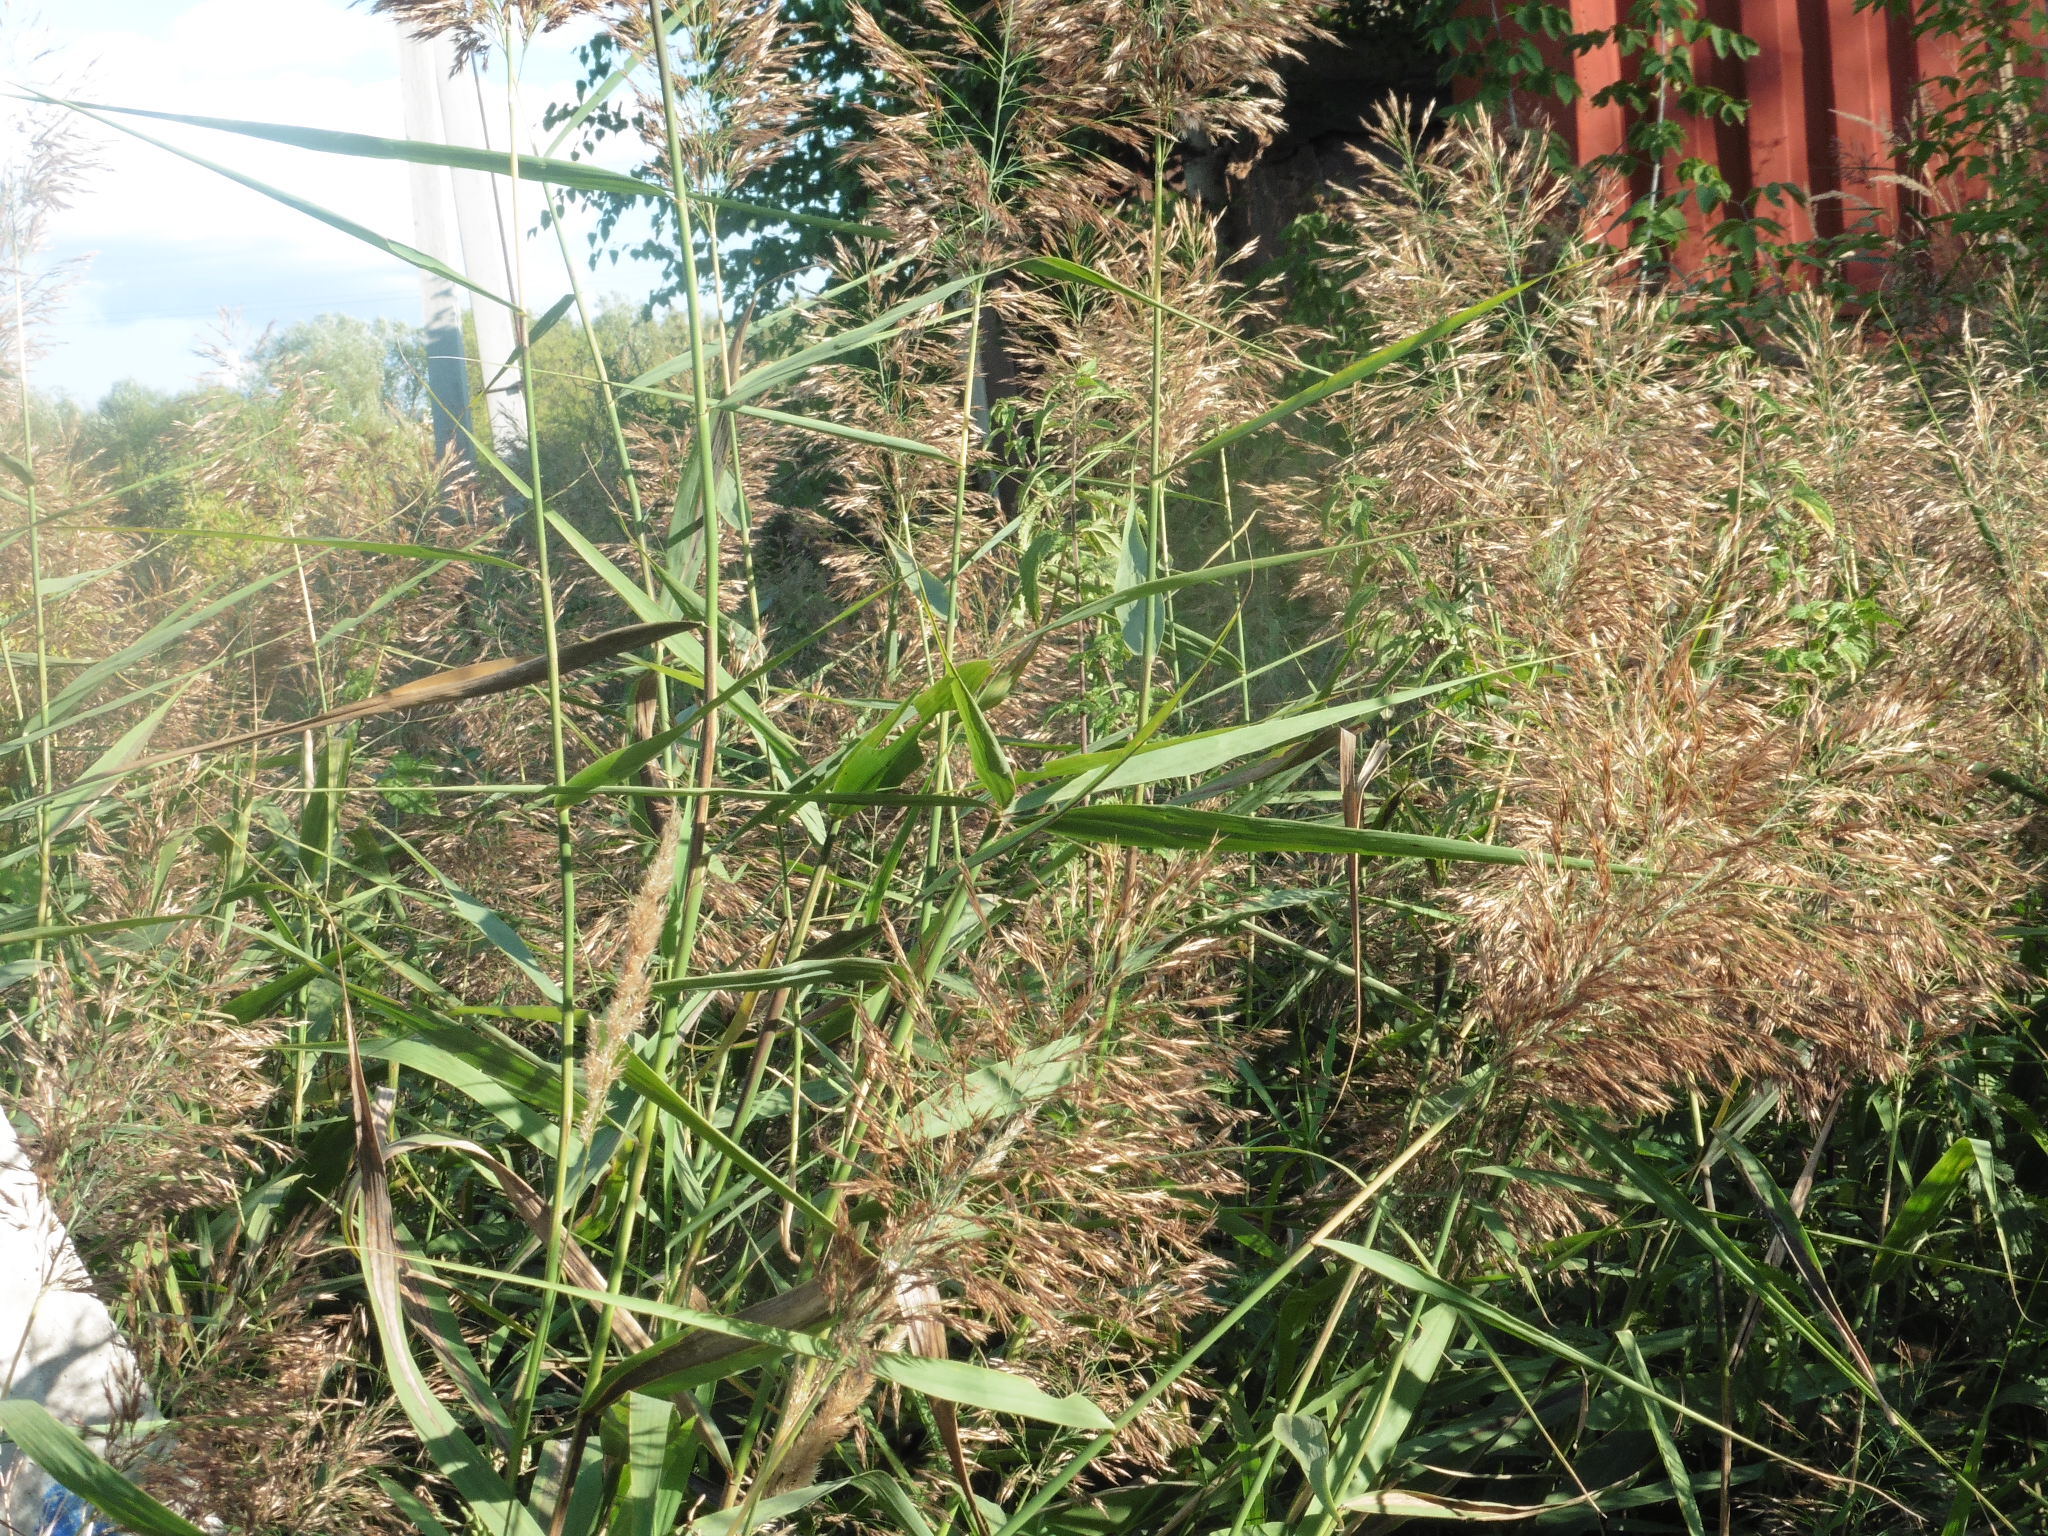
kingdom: Plantae
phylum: Tracheophyta
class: Liliopsida
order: Poales
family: Poaceae
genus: Phragmites
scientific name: Phragmites australis
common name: Common reed
